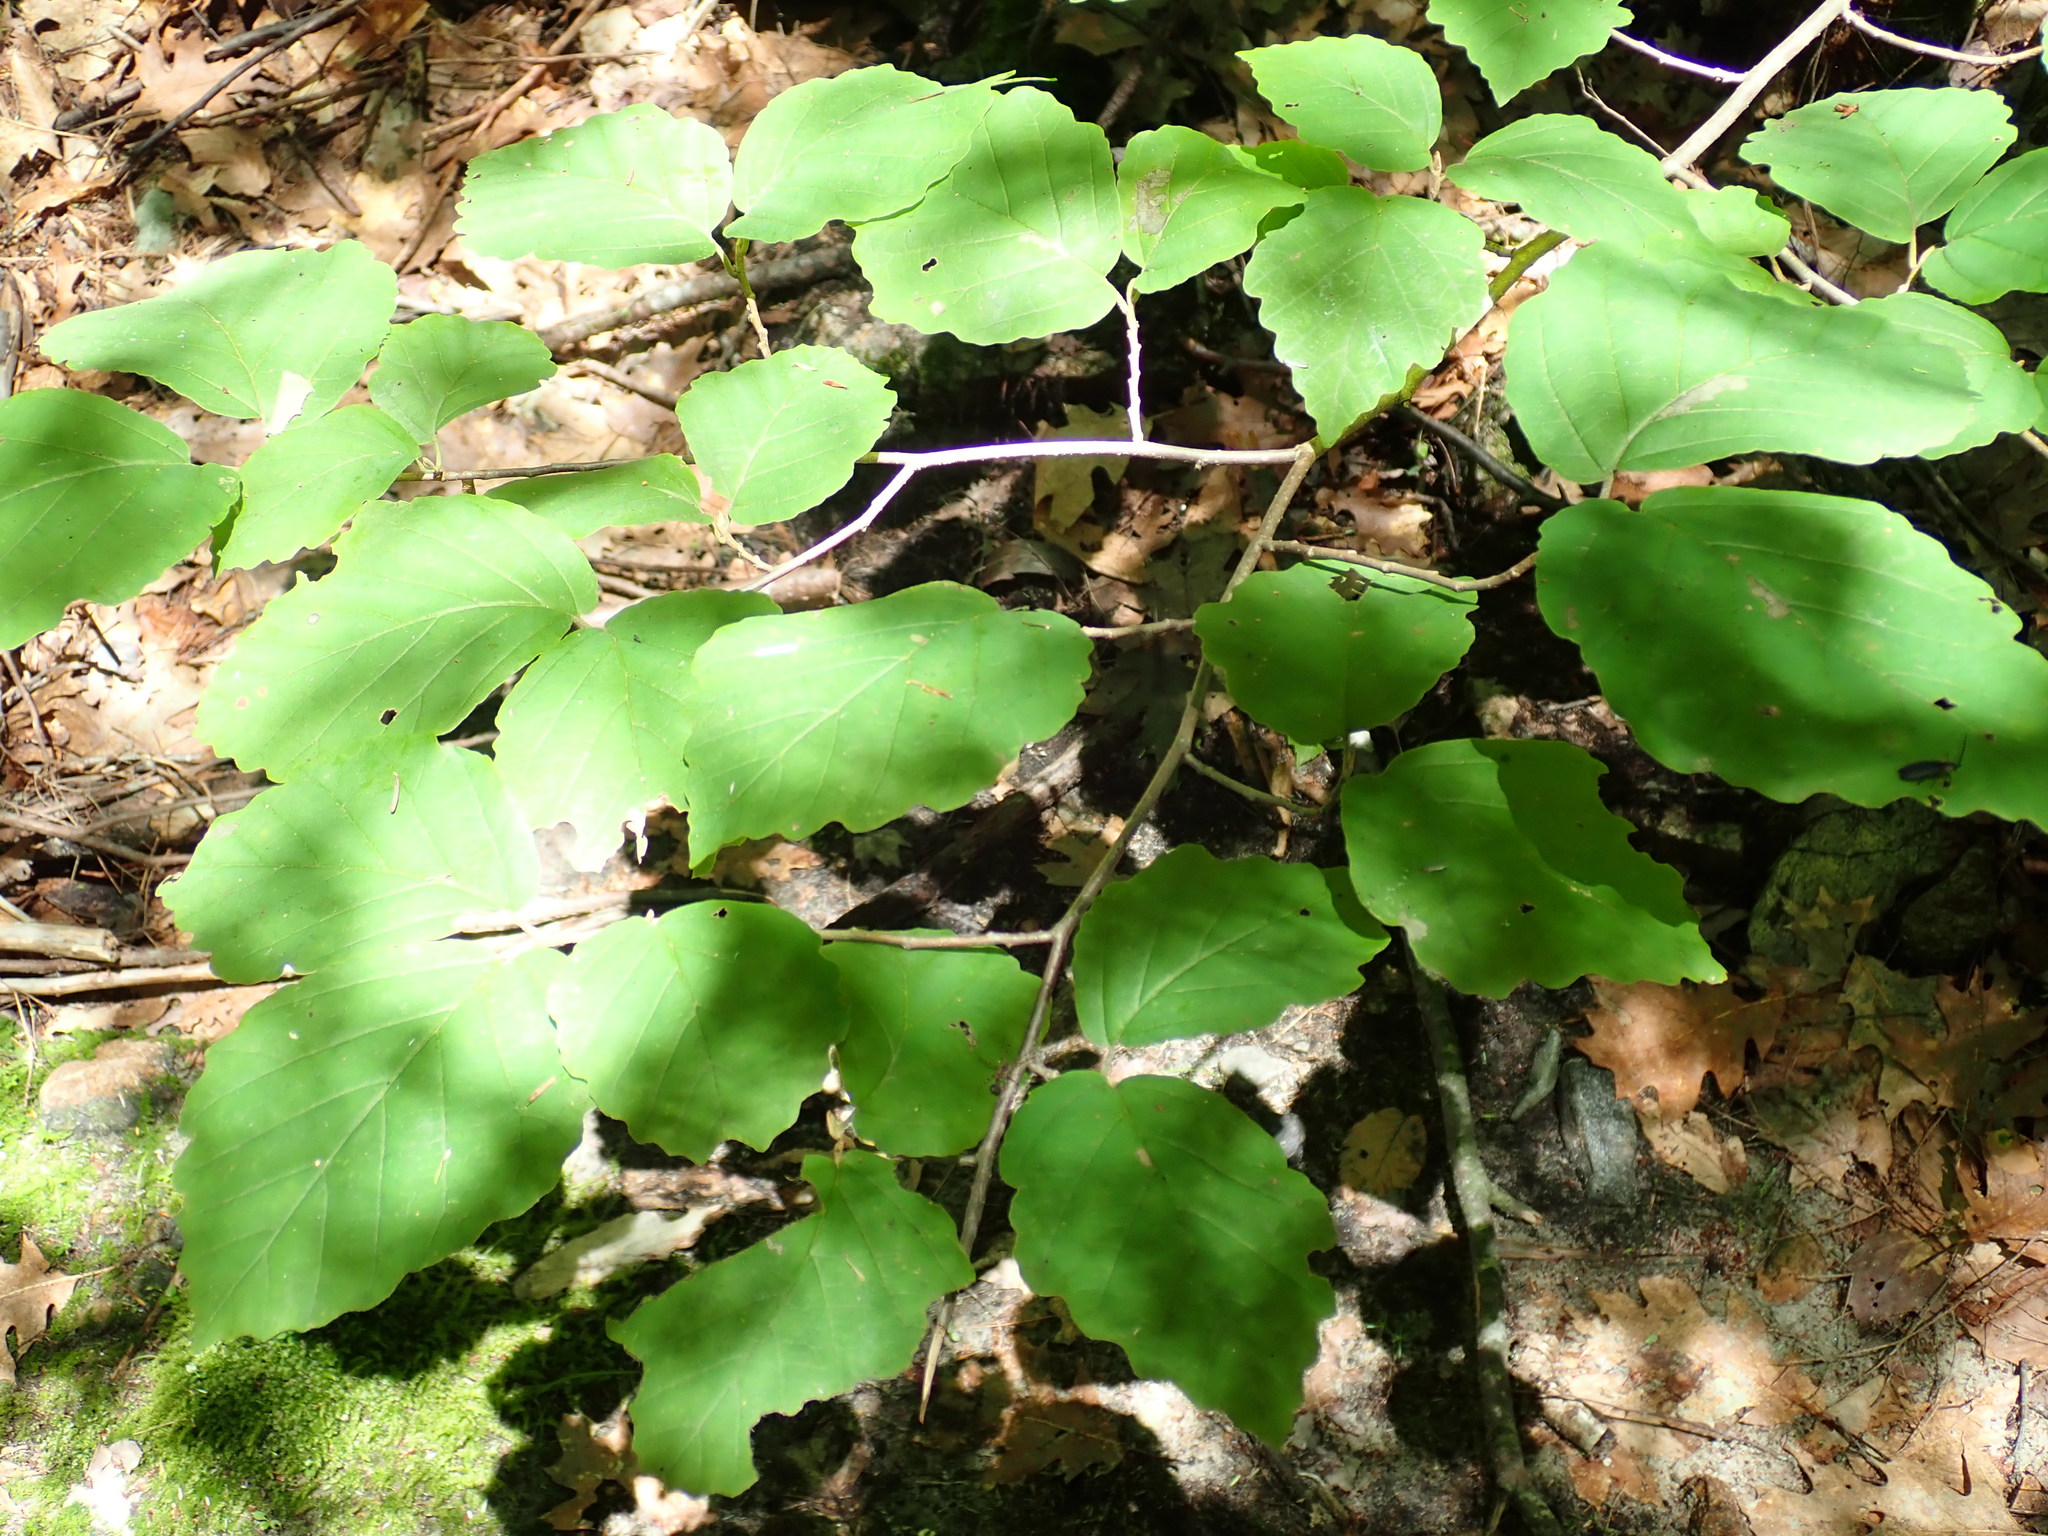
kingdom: Plantae
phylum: Tracheophyta
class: Magnoliopsida
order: Saxifragales
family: Hamamelidaceae
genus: Hamamelis
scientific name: Hamamelis virginiana
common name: Witch-hazel
